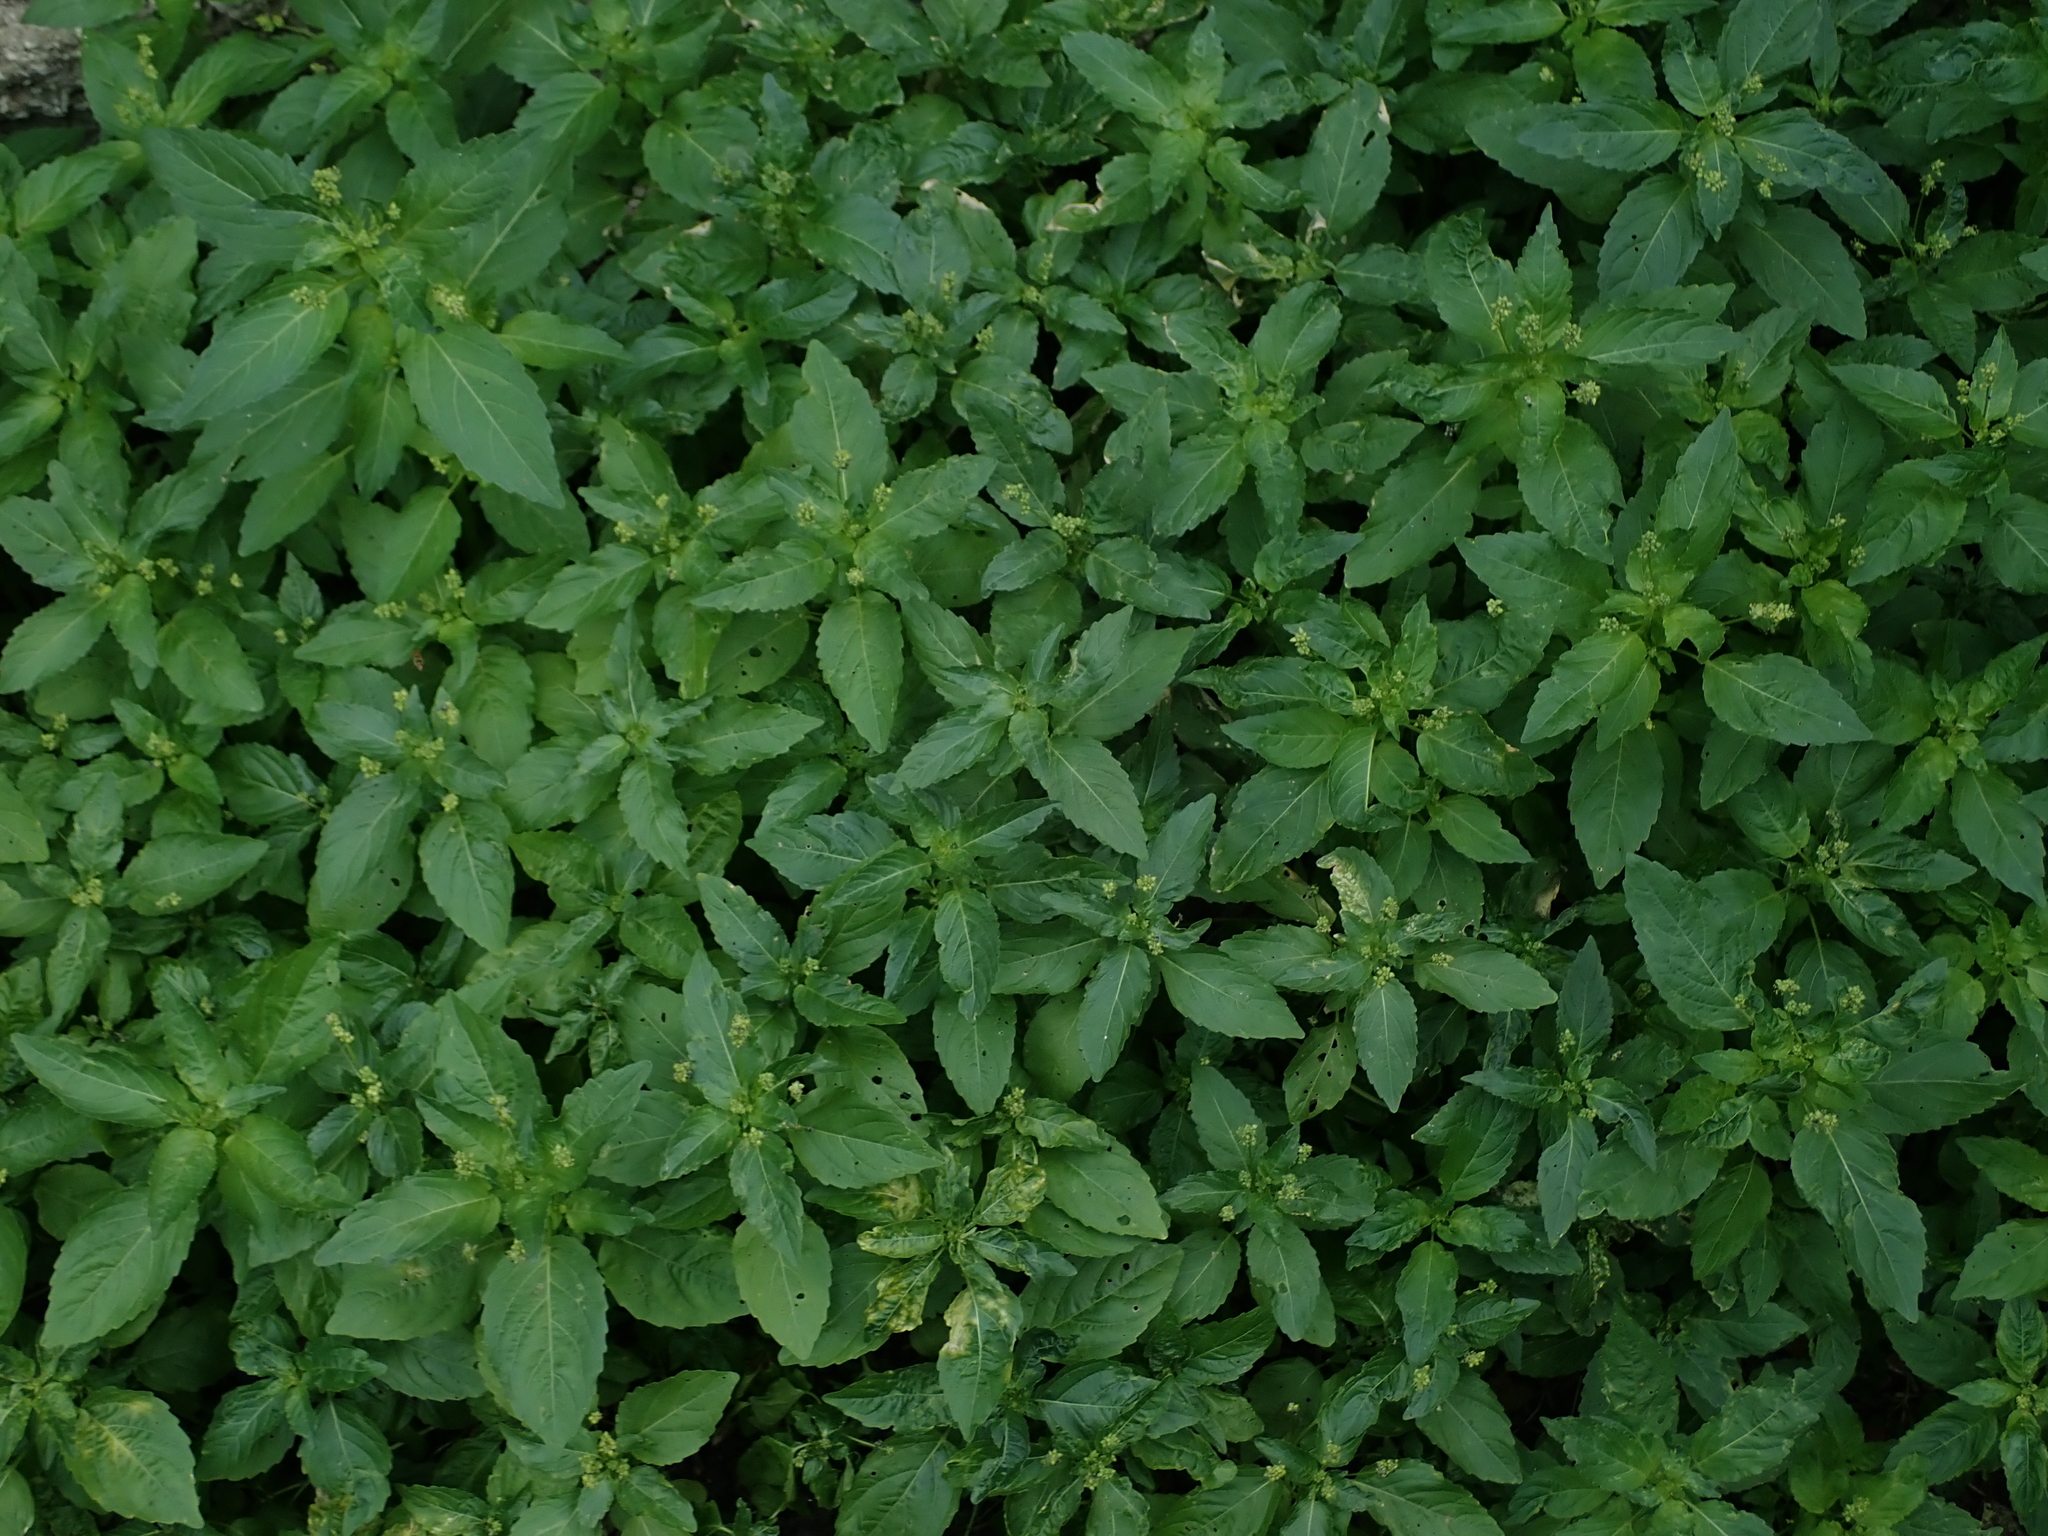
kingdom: Plantae
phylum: Tracheophyta
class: Magnoliopsida
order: Malpighiales
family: Euphorbiaceae
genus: Mercurialis
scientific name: Mercurialis annua
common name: Annual mercury
